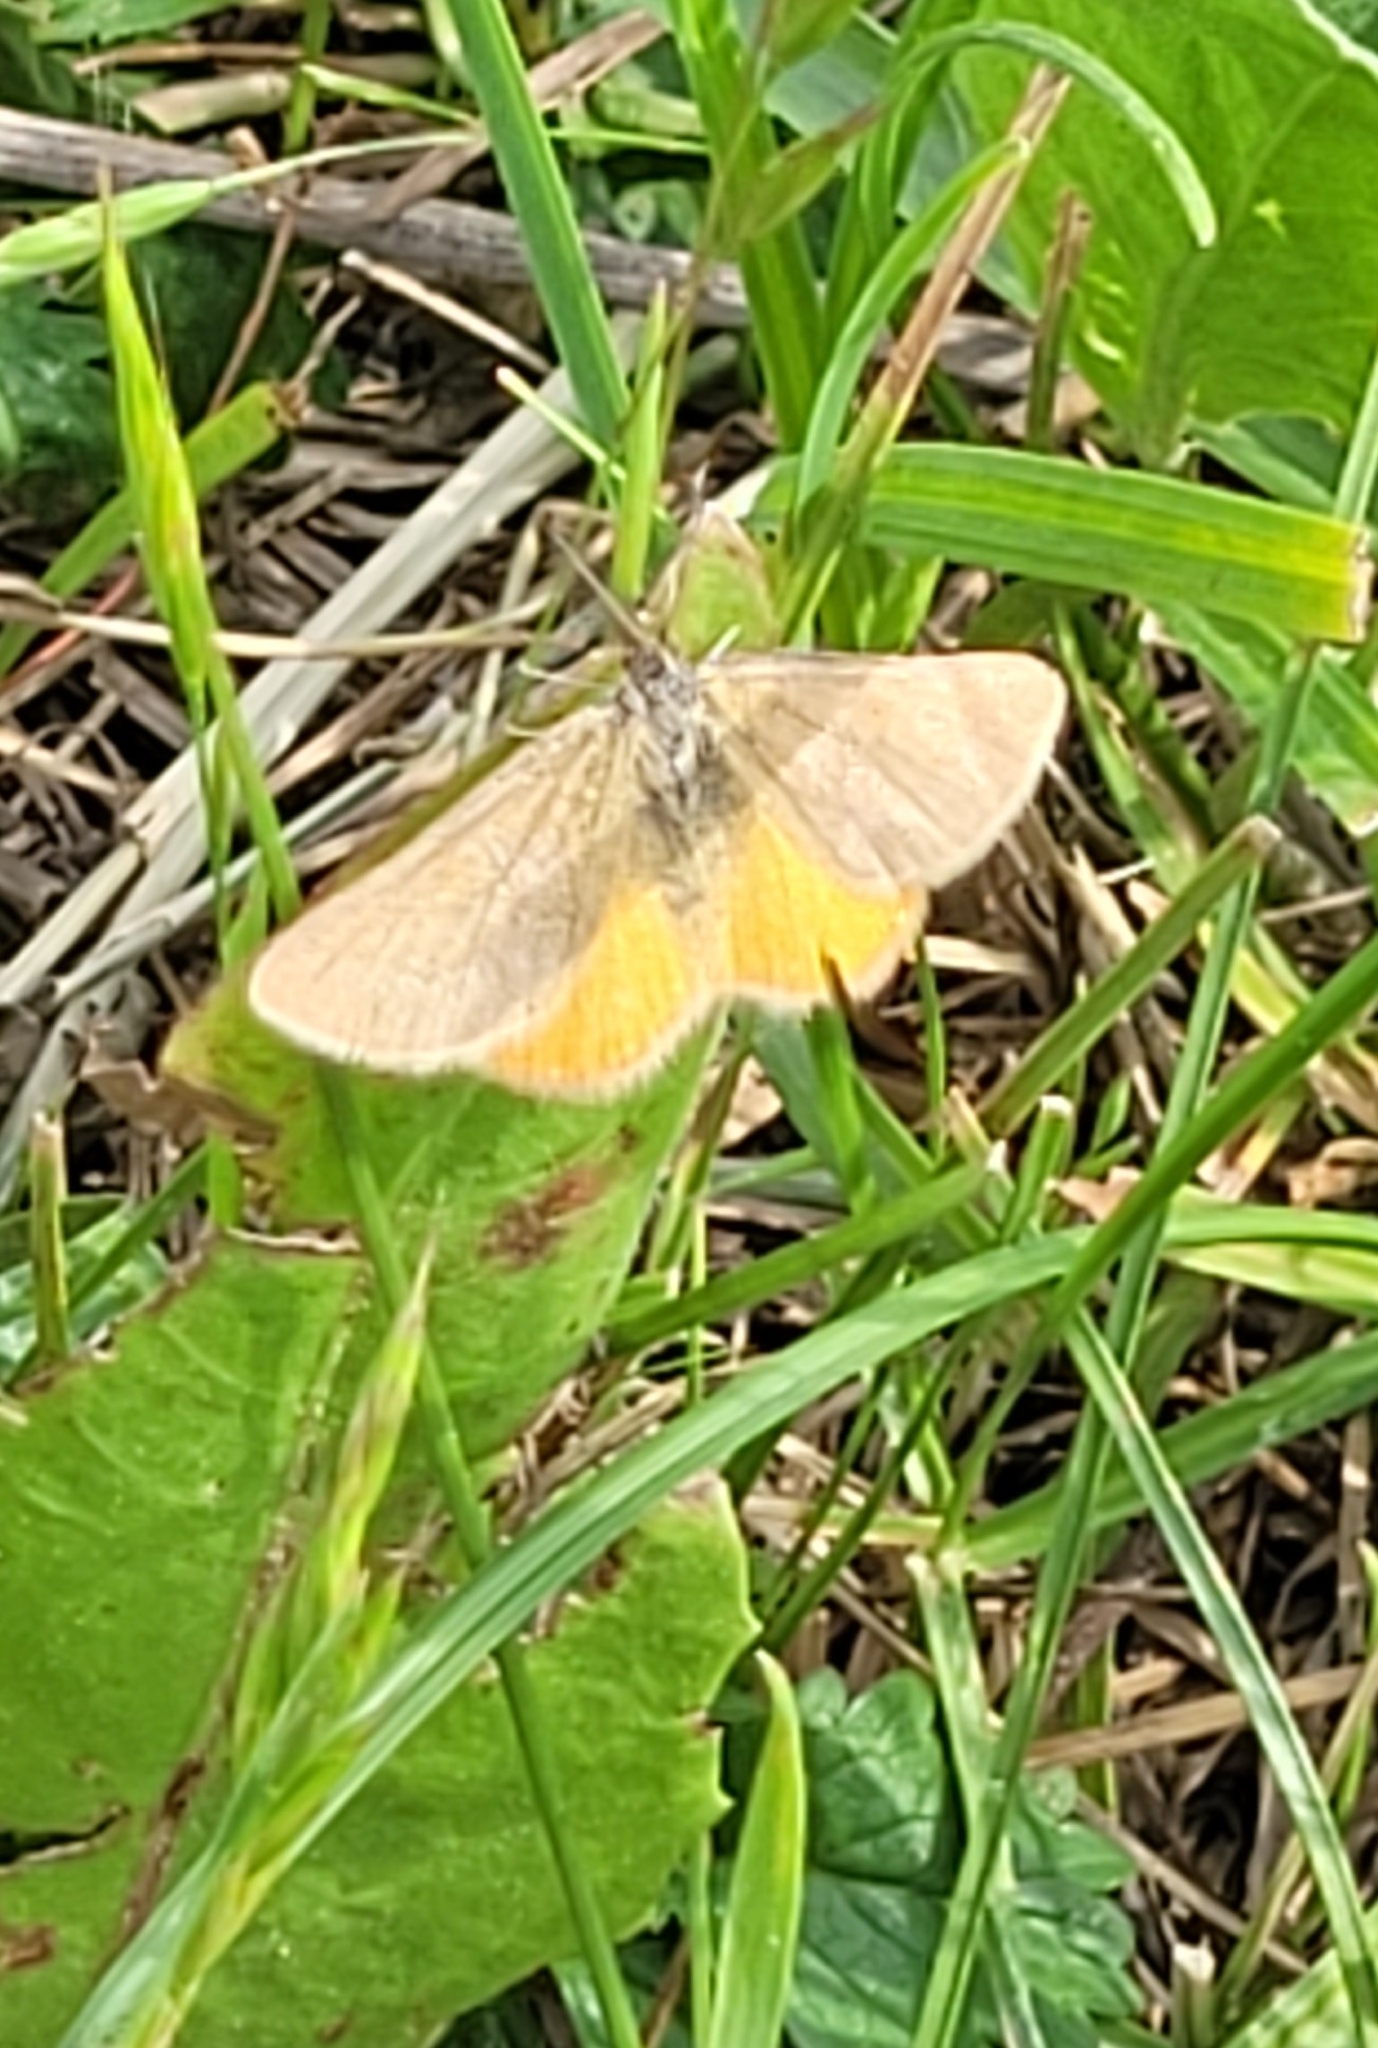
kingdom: Animalia
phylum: Arthropoda
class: Insecta
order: Lepidoptera
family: Geometridae
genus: Lythria
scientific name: Lythria purpuraria
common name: Purple-barred yellow
